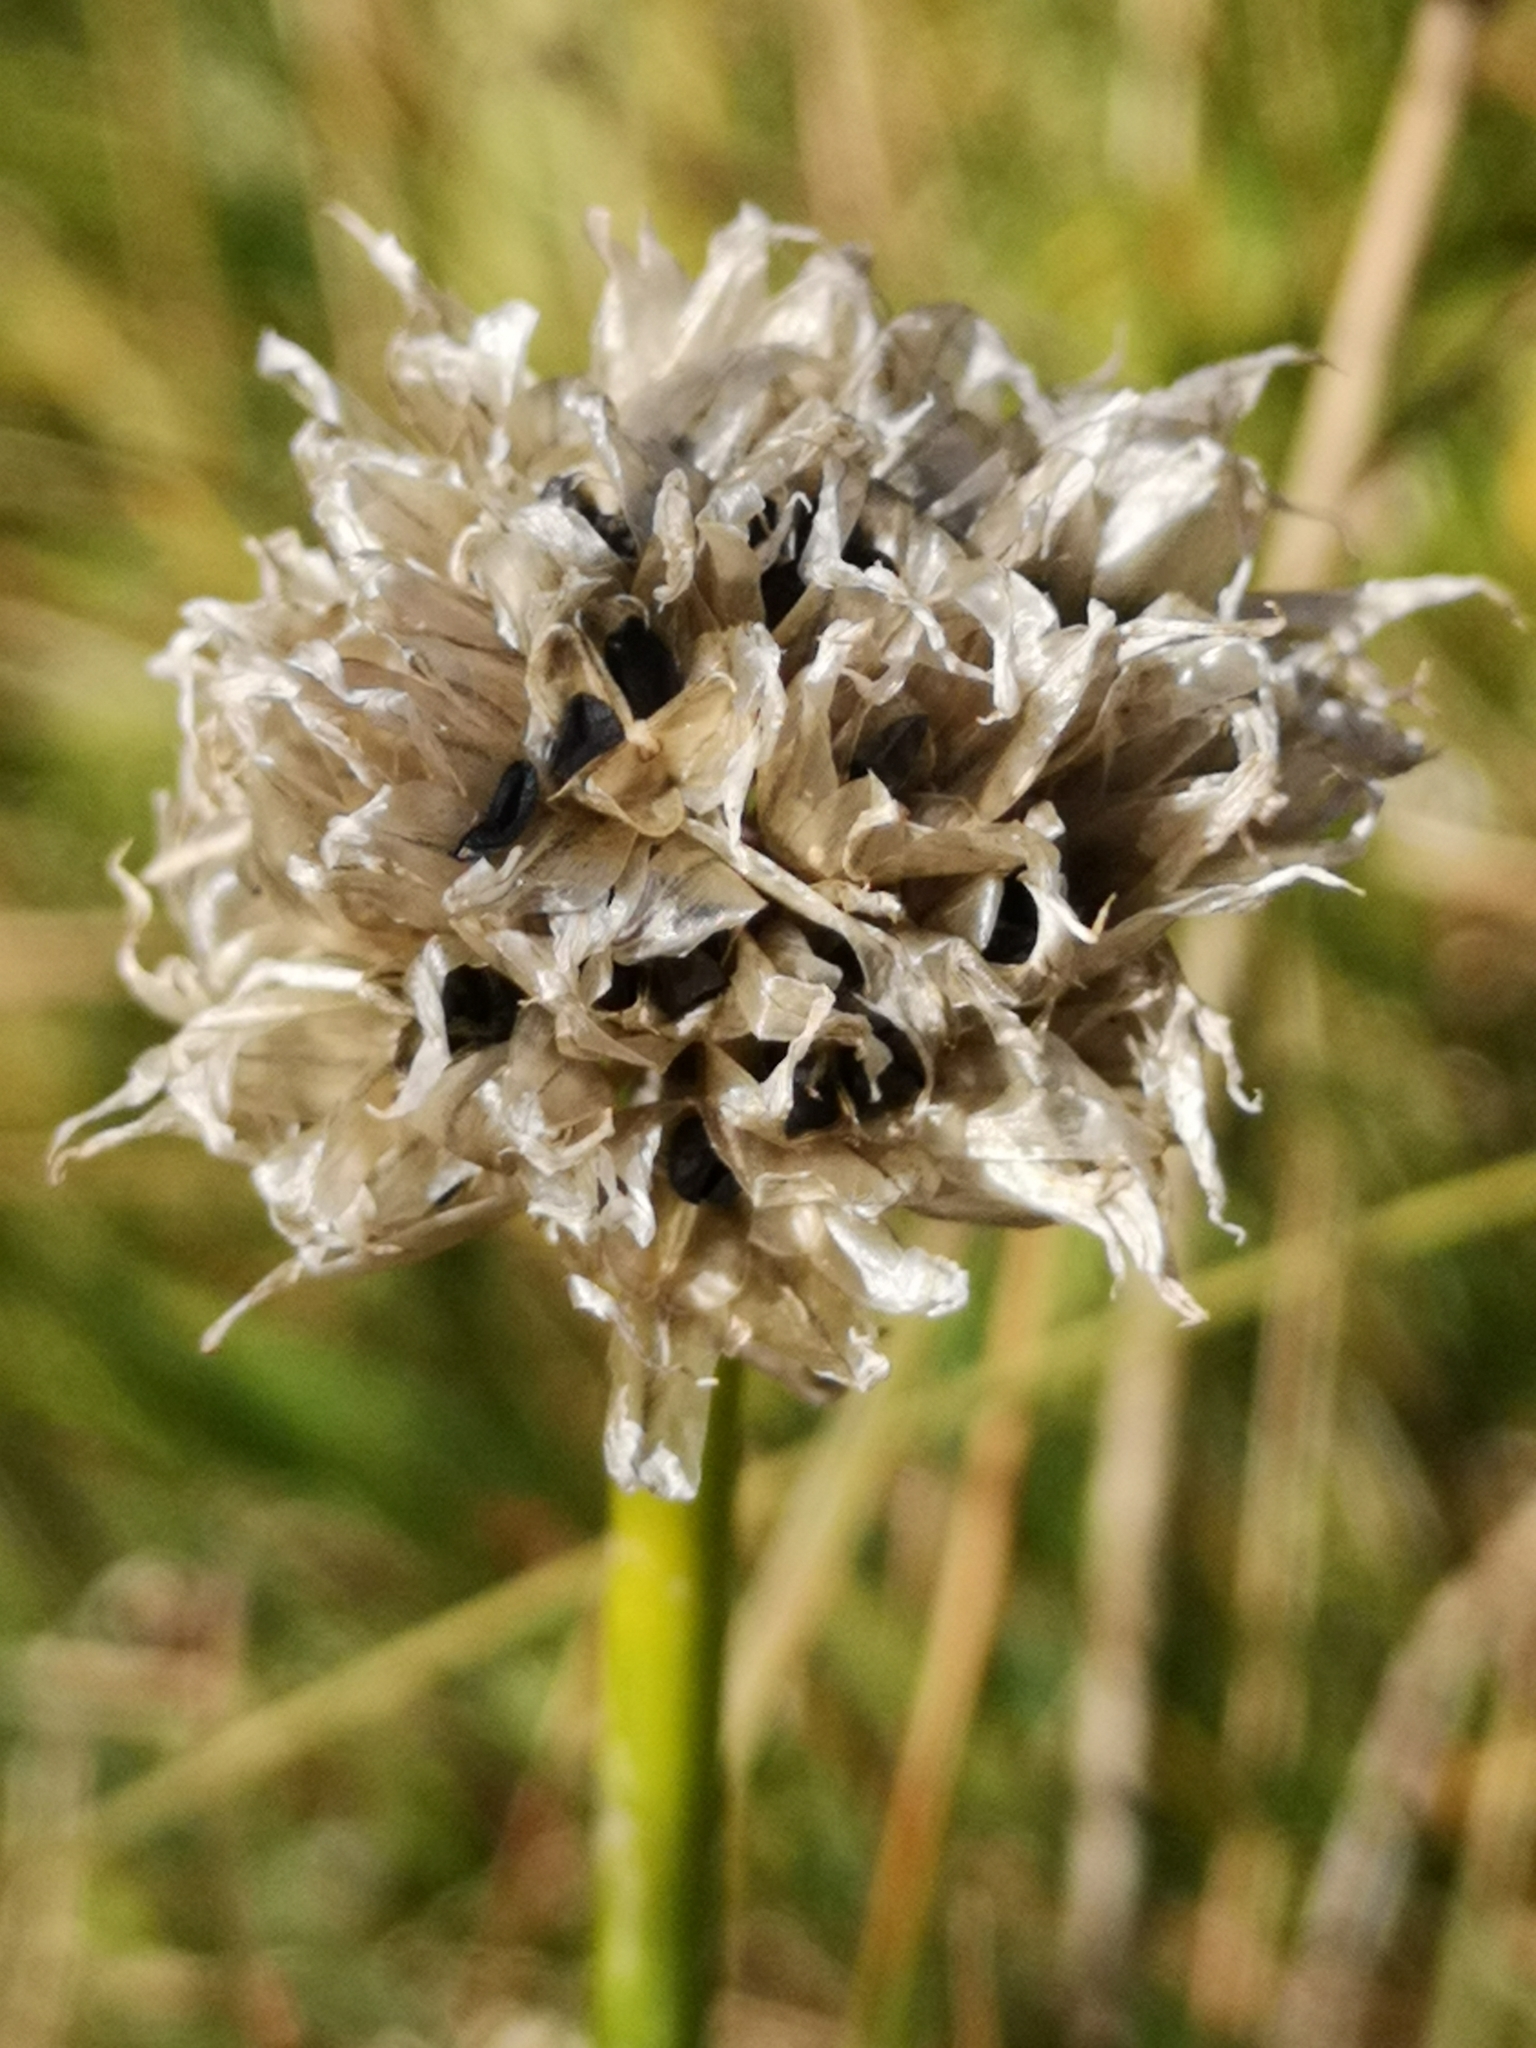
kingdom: Plantae
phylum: Tracheophyta
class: Liliopsida
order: Asparagales
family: Amaryllidaceae
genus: Allium
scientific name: Allium schoenoprasum
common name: Chives
